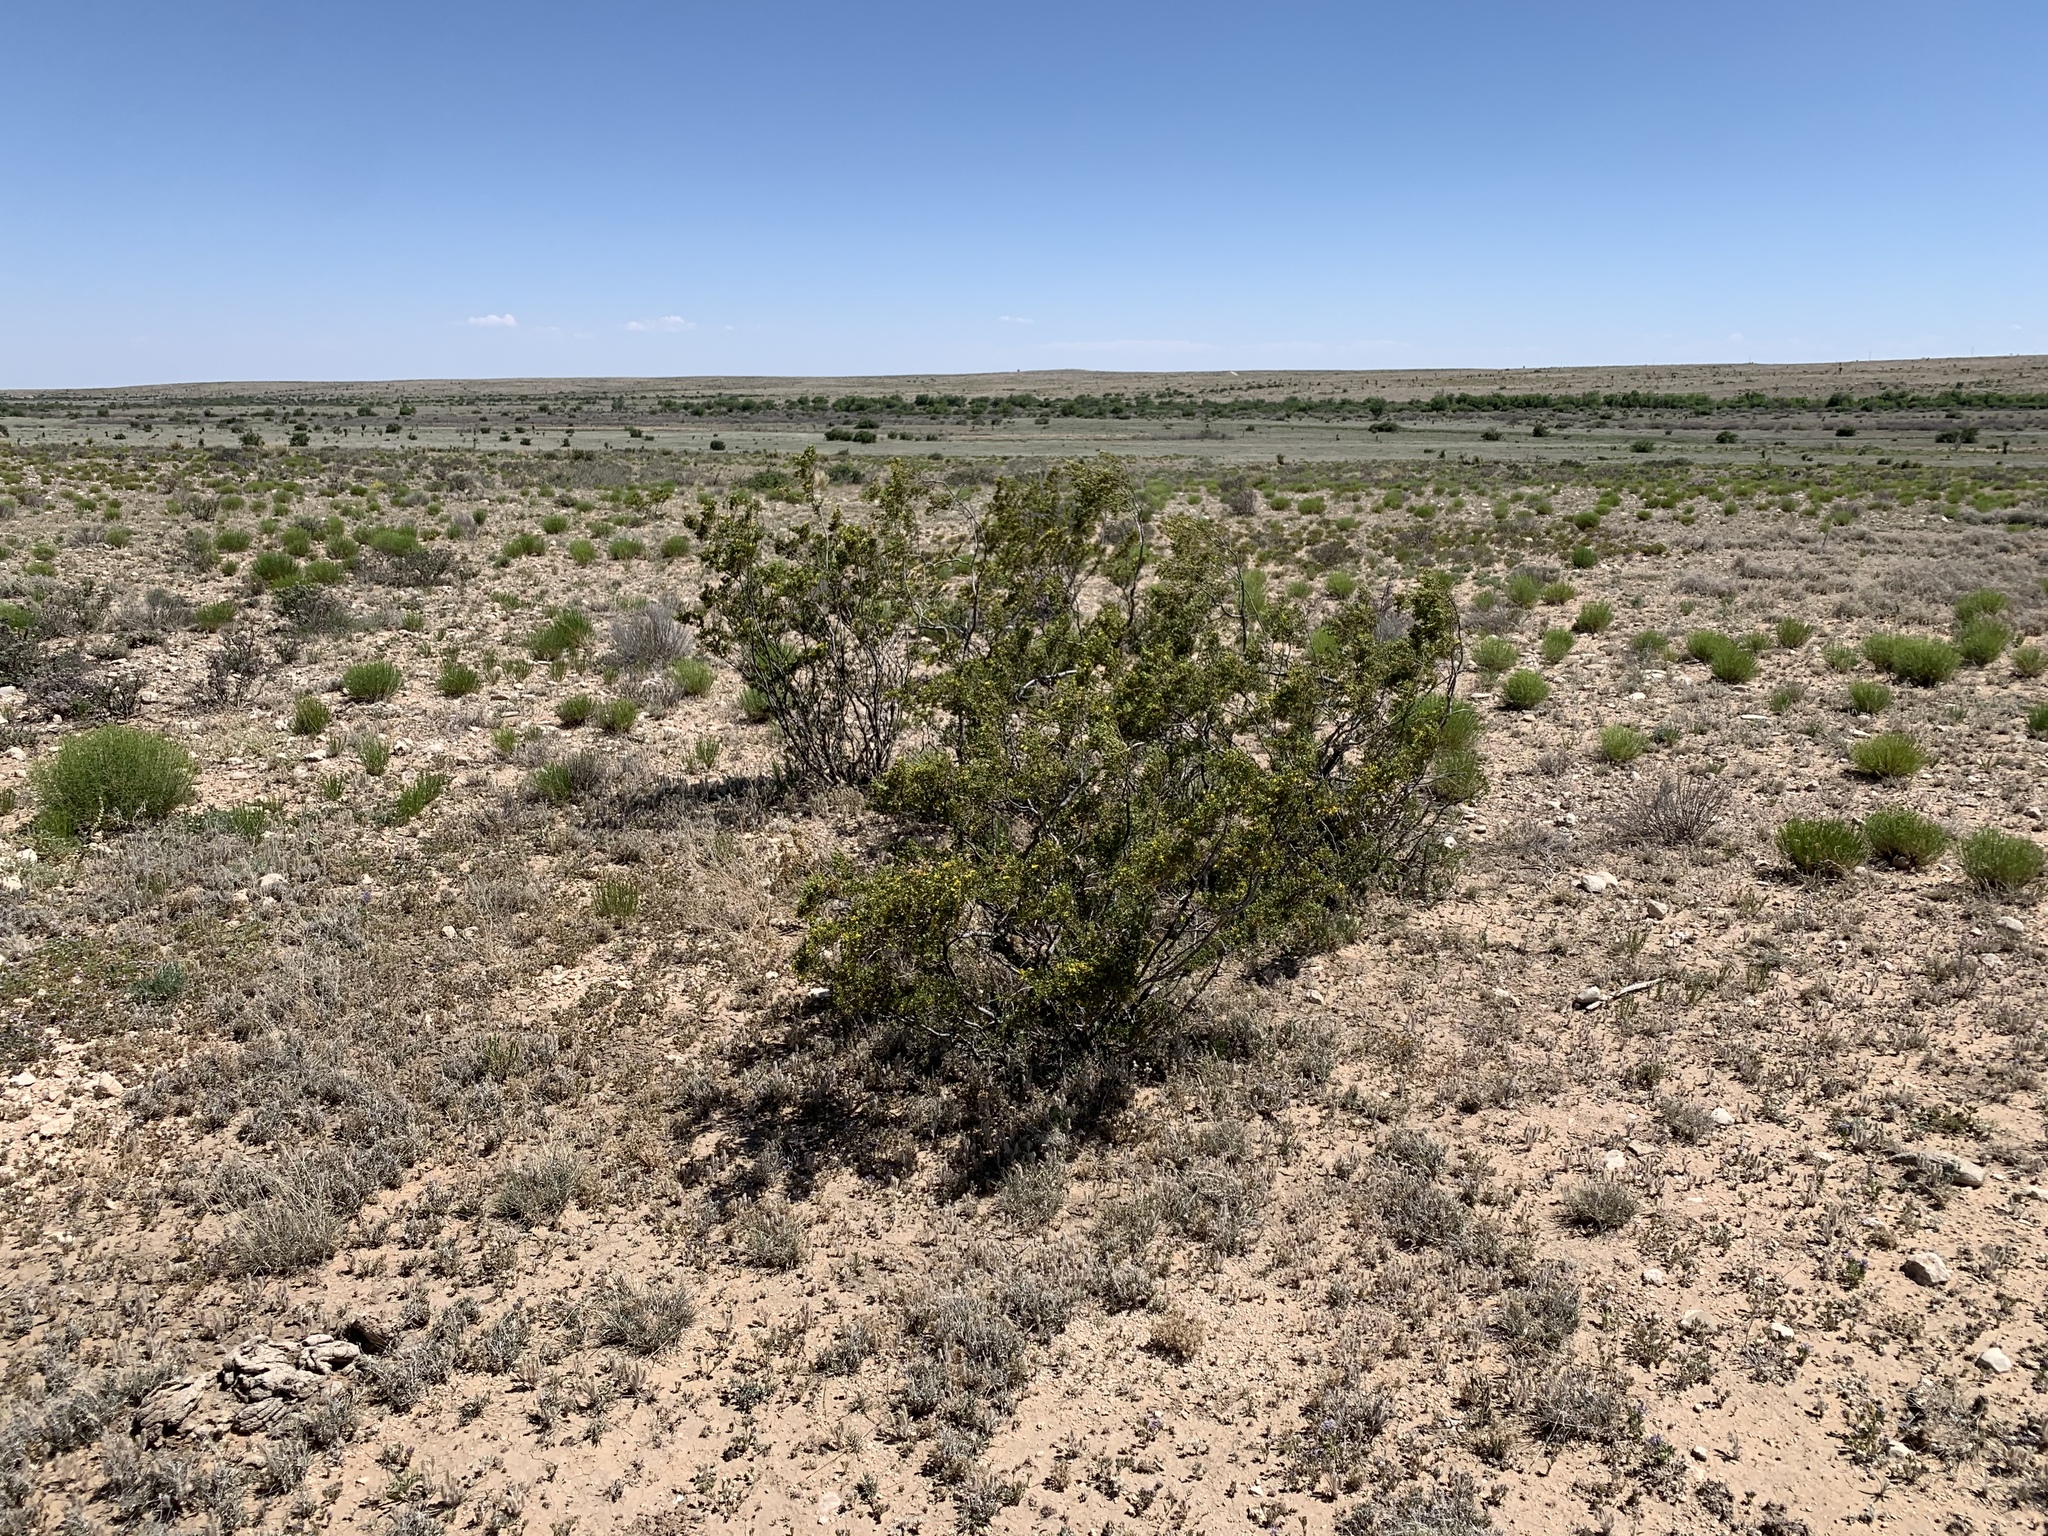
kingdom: Plantae
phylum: Tracheophyta
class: Magnoliopsida
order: Zygophyllales
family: Zygophyllaceae
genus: Larrea
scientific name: Larrea tridentata
